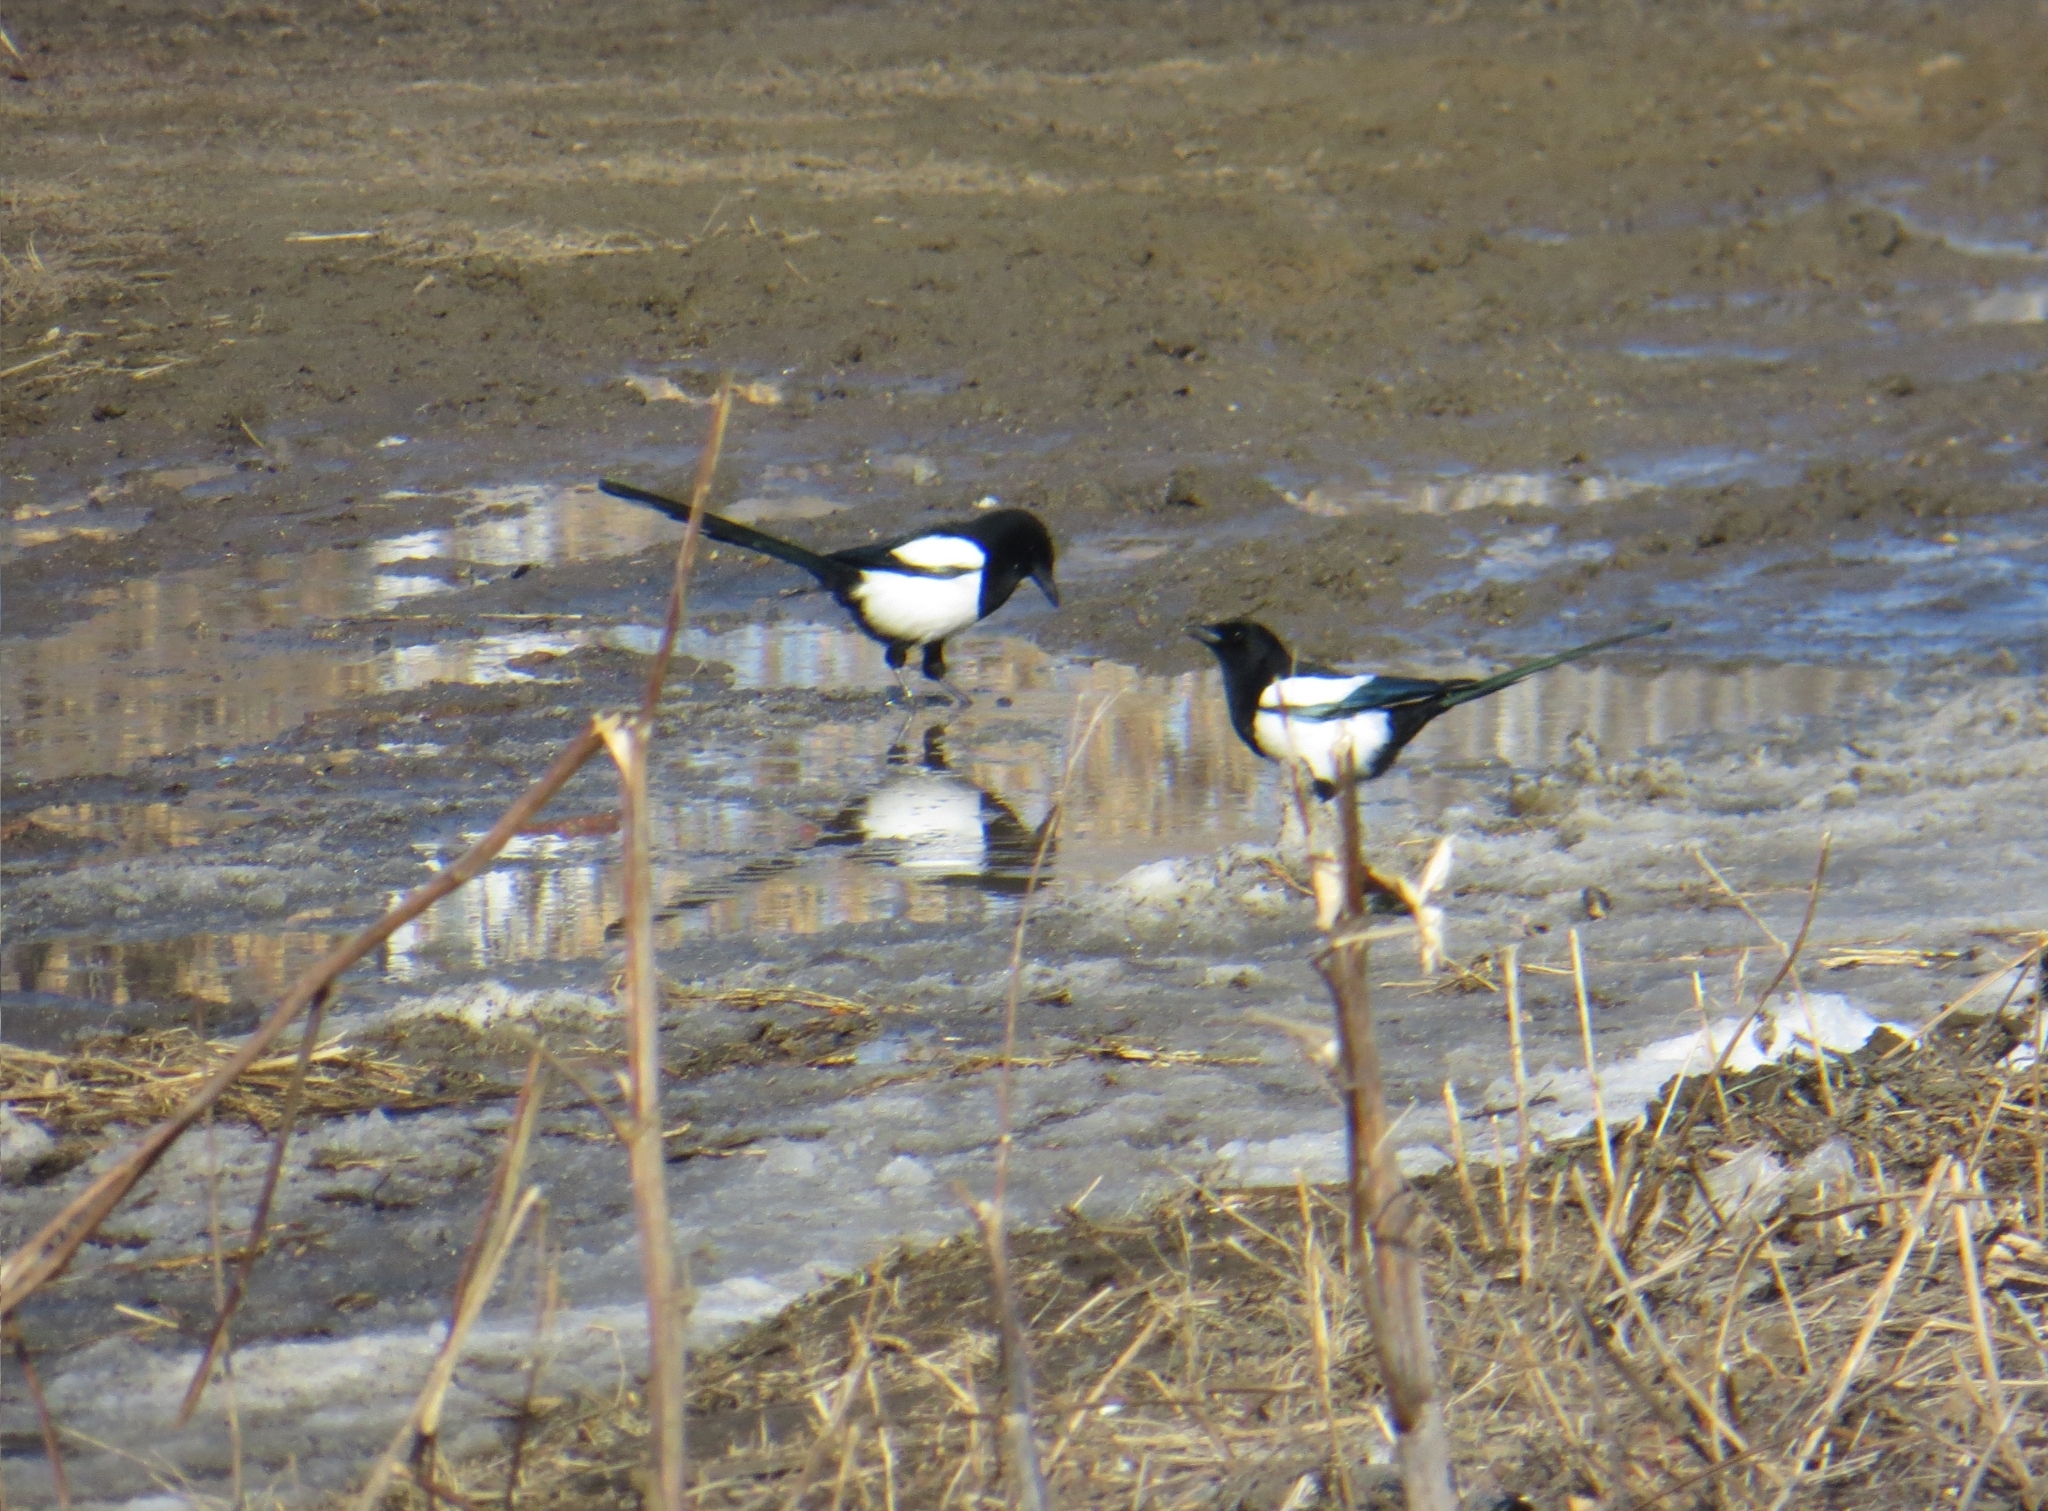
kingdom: Animalia
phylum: Chordata
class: Aves
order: Passeriformes
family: Corvidae
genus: Pica
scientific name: Pica pica
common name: Eurasian magpie
